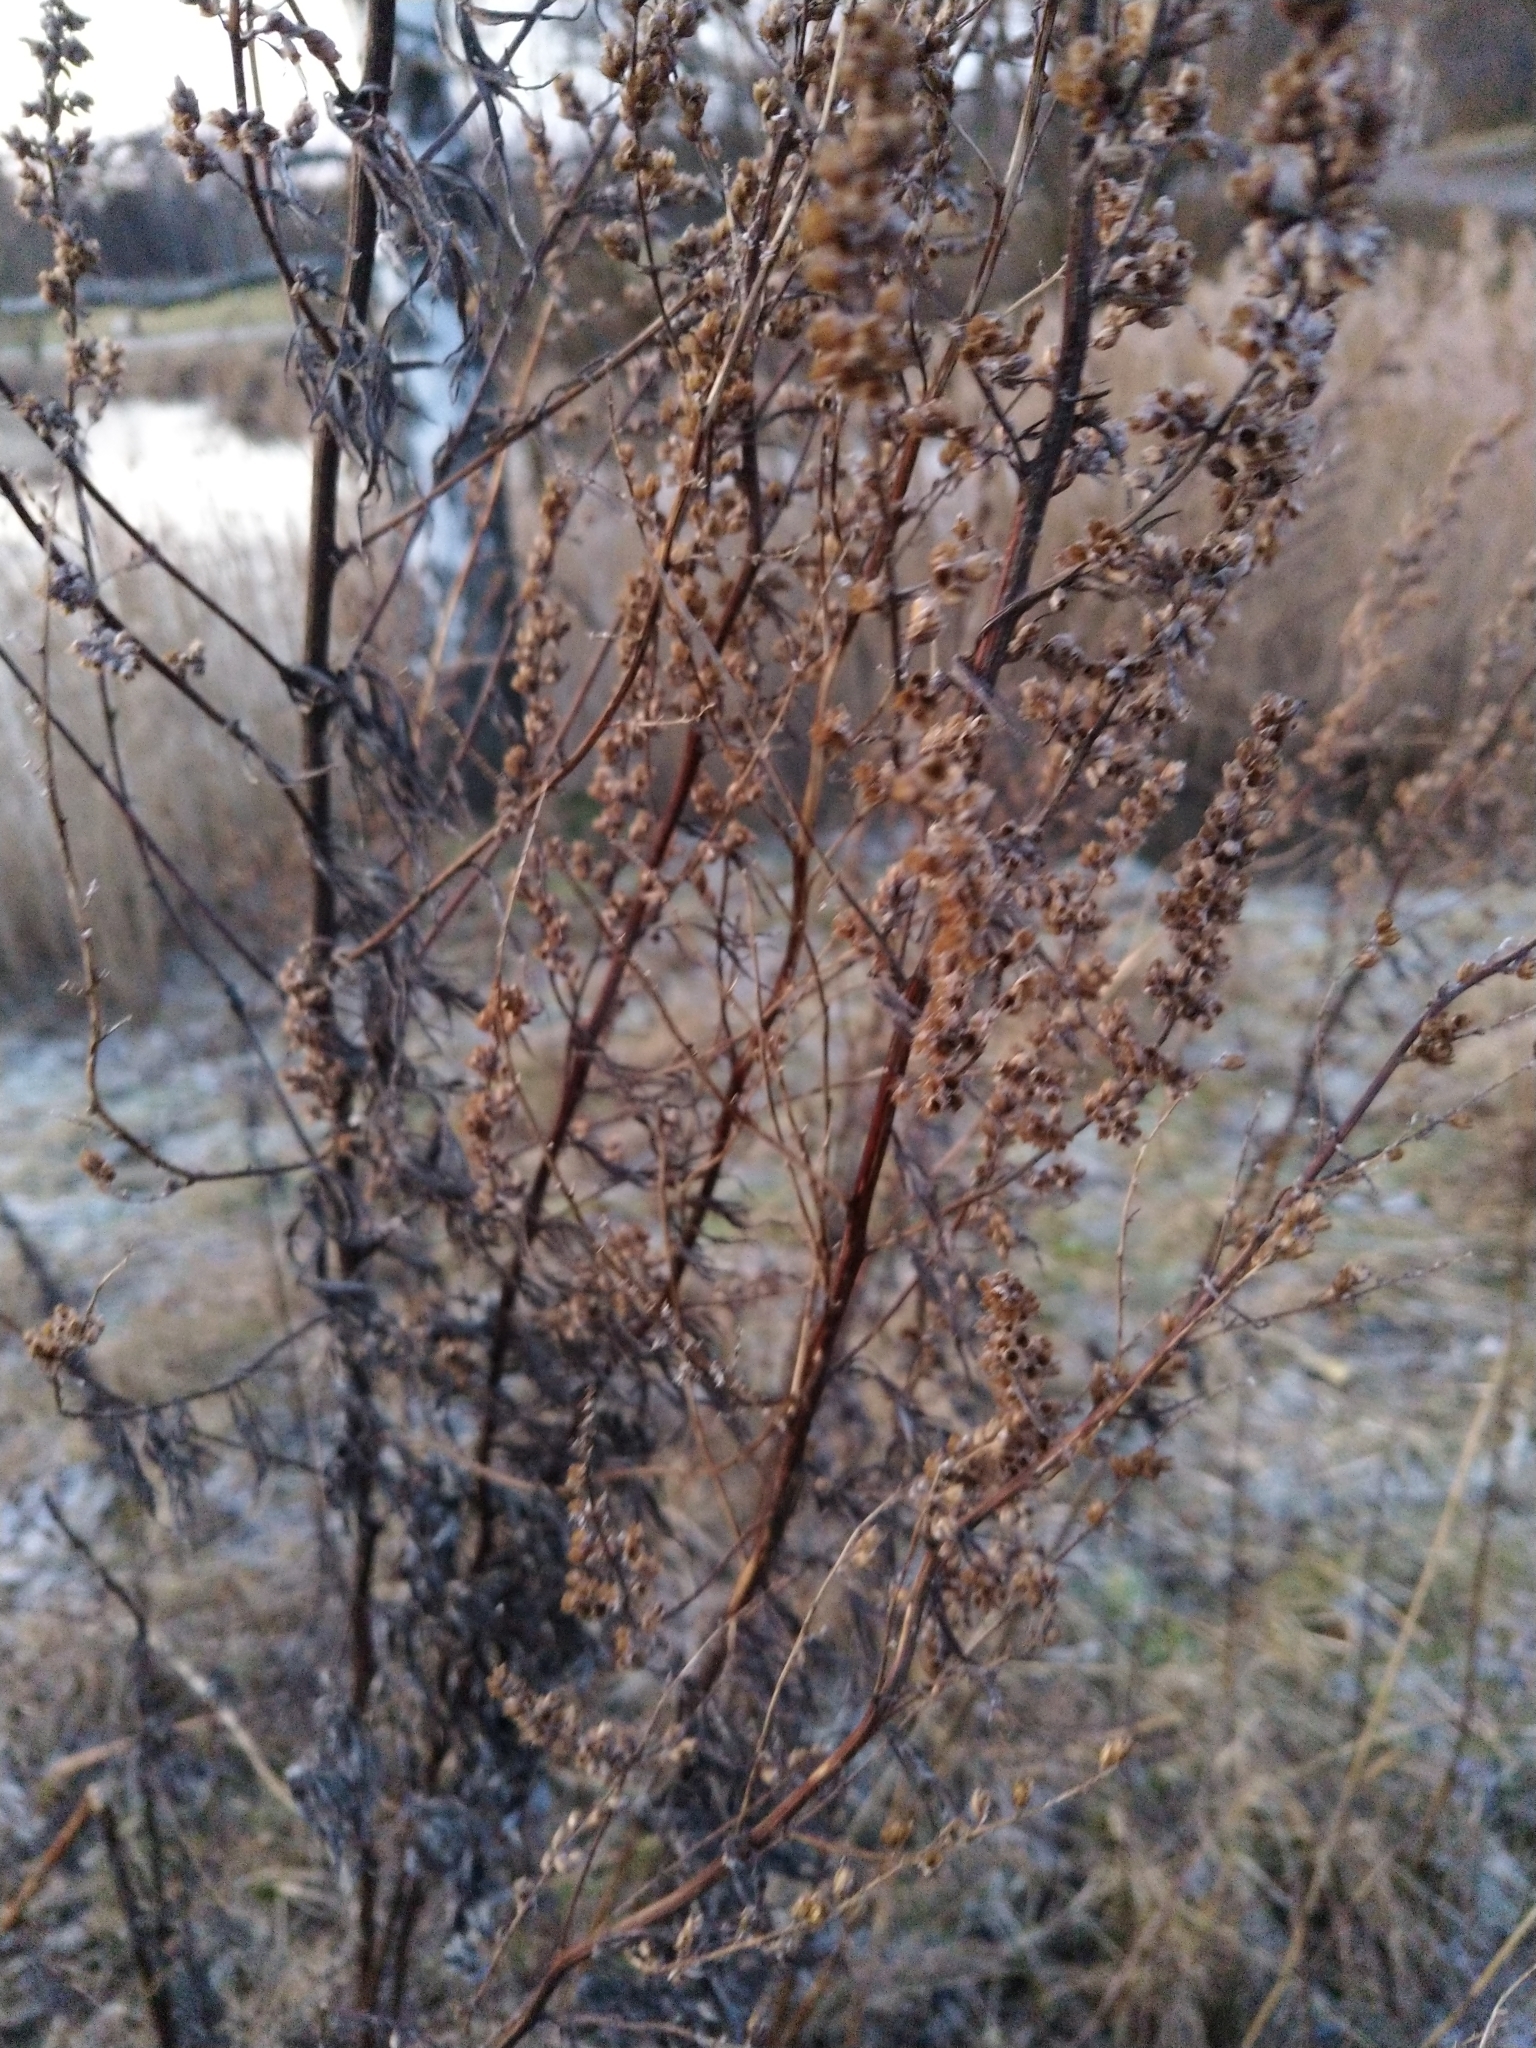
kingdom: Plantae
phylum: Tracheophyta
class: Magnoliopsida
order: Asterales
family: Asteraceae
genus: Artemisia
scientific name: Artemisia vulgaris
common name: Mugwort
